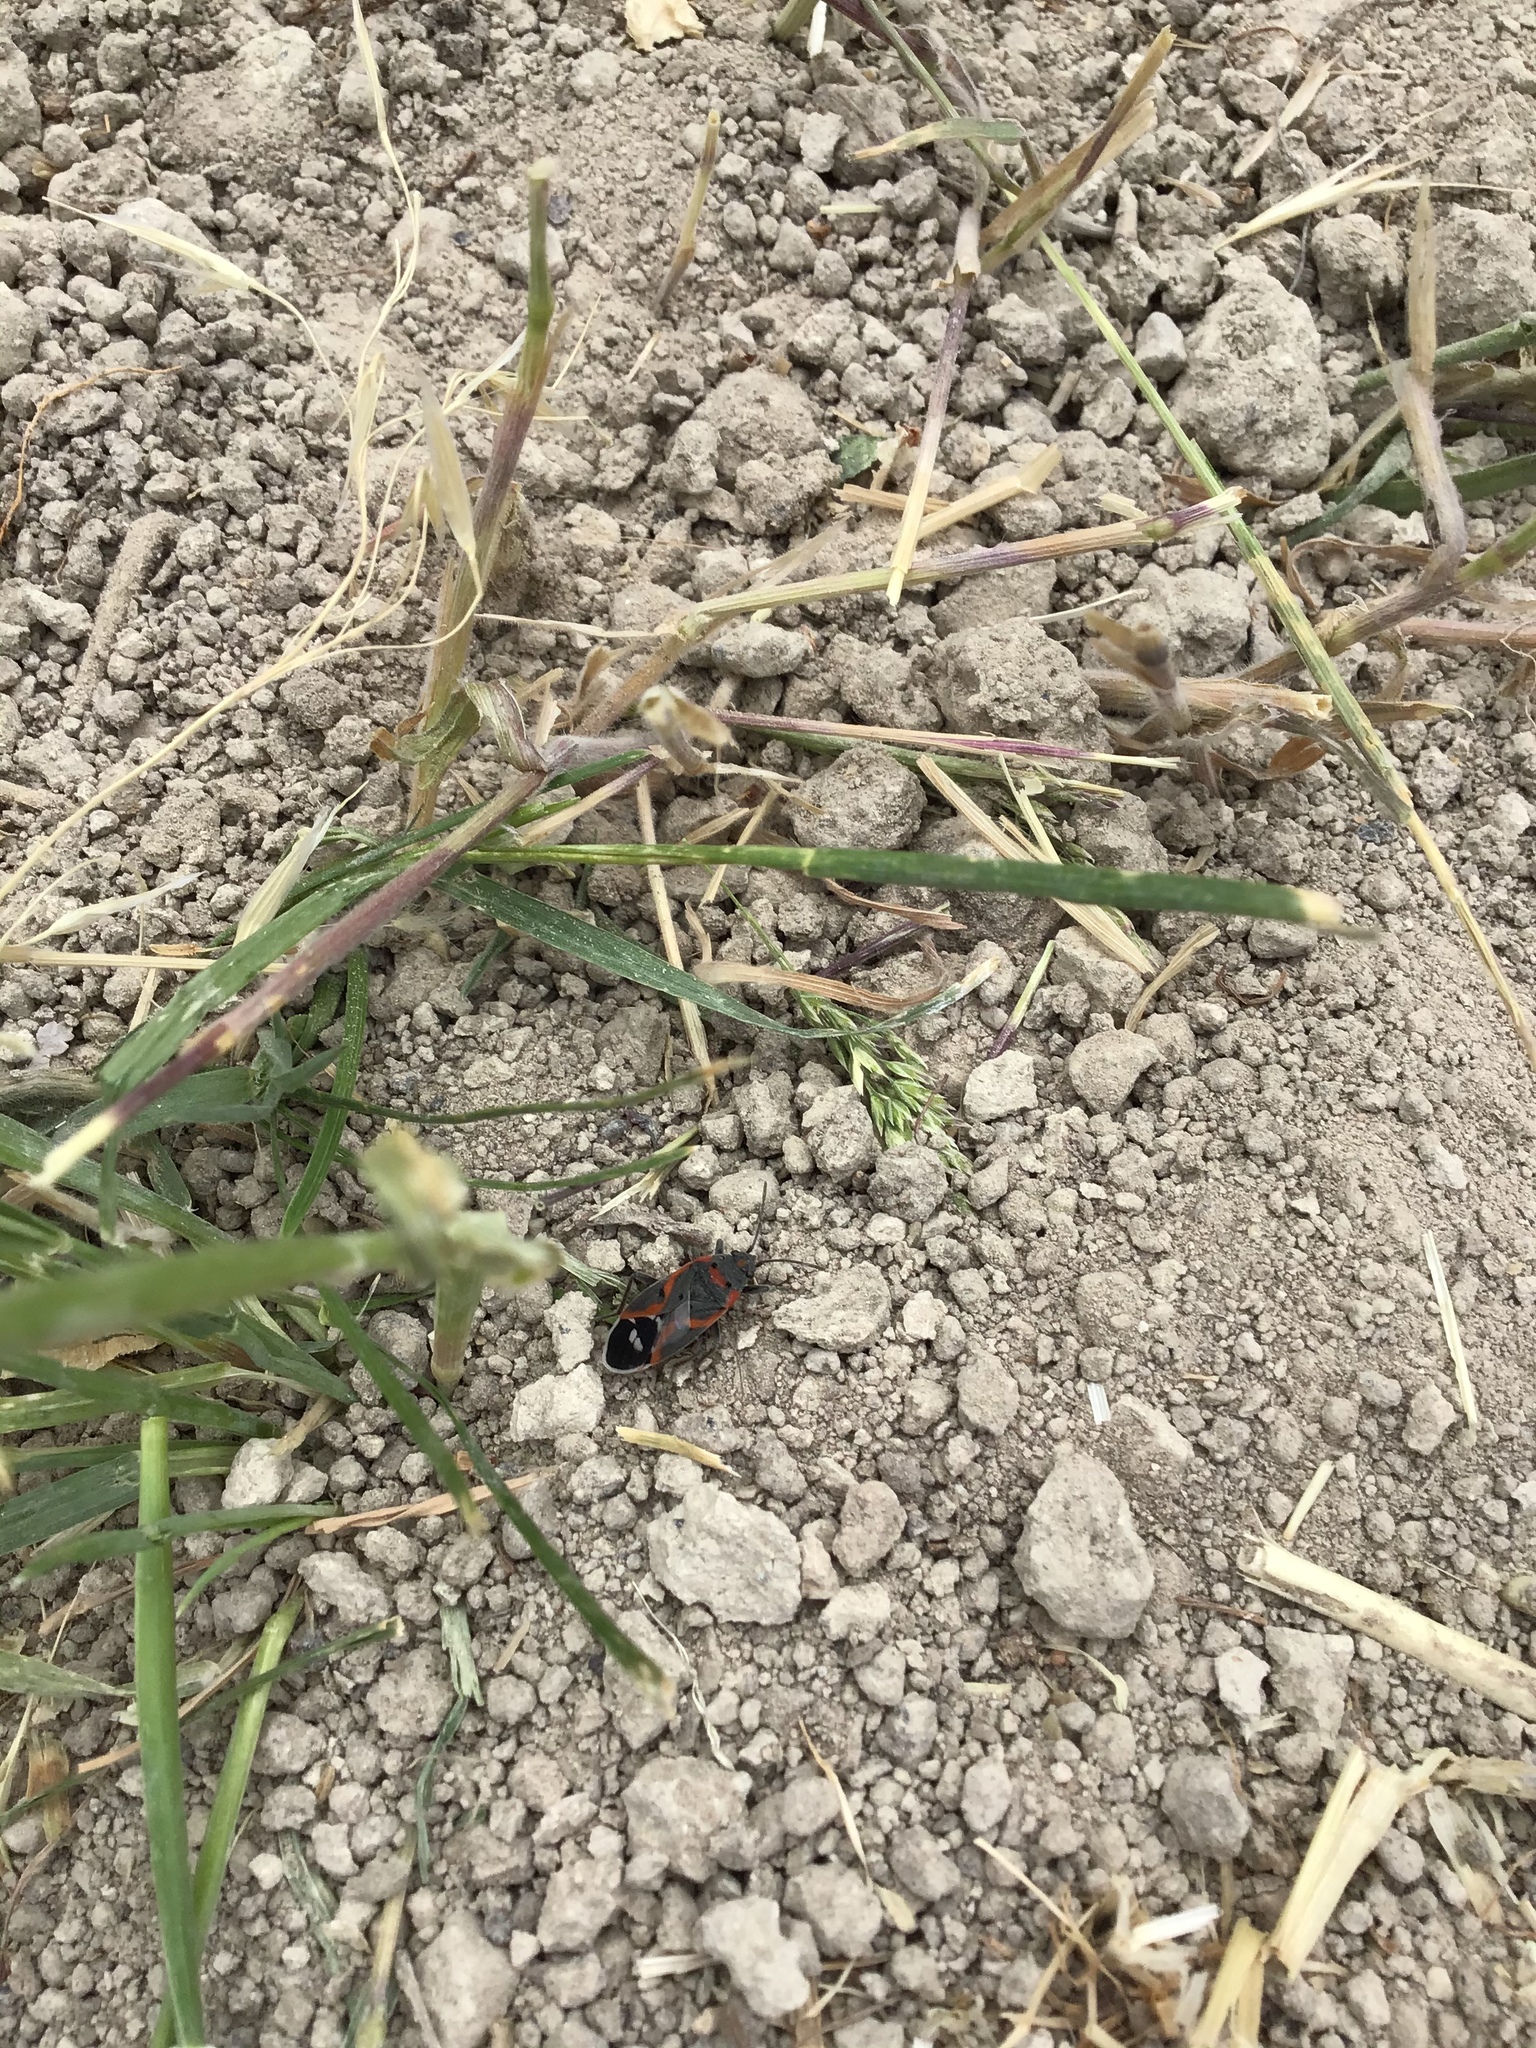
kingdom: Animalia
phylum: Arthropoda
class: Insecta
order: Hemiptera
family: Lygaeidae
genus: Lygaeus
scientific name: Lygaeus kalmii
